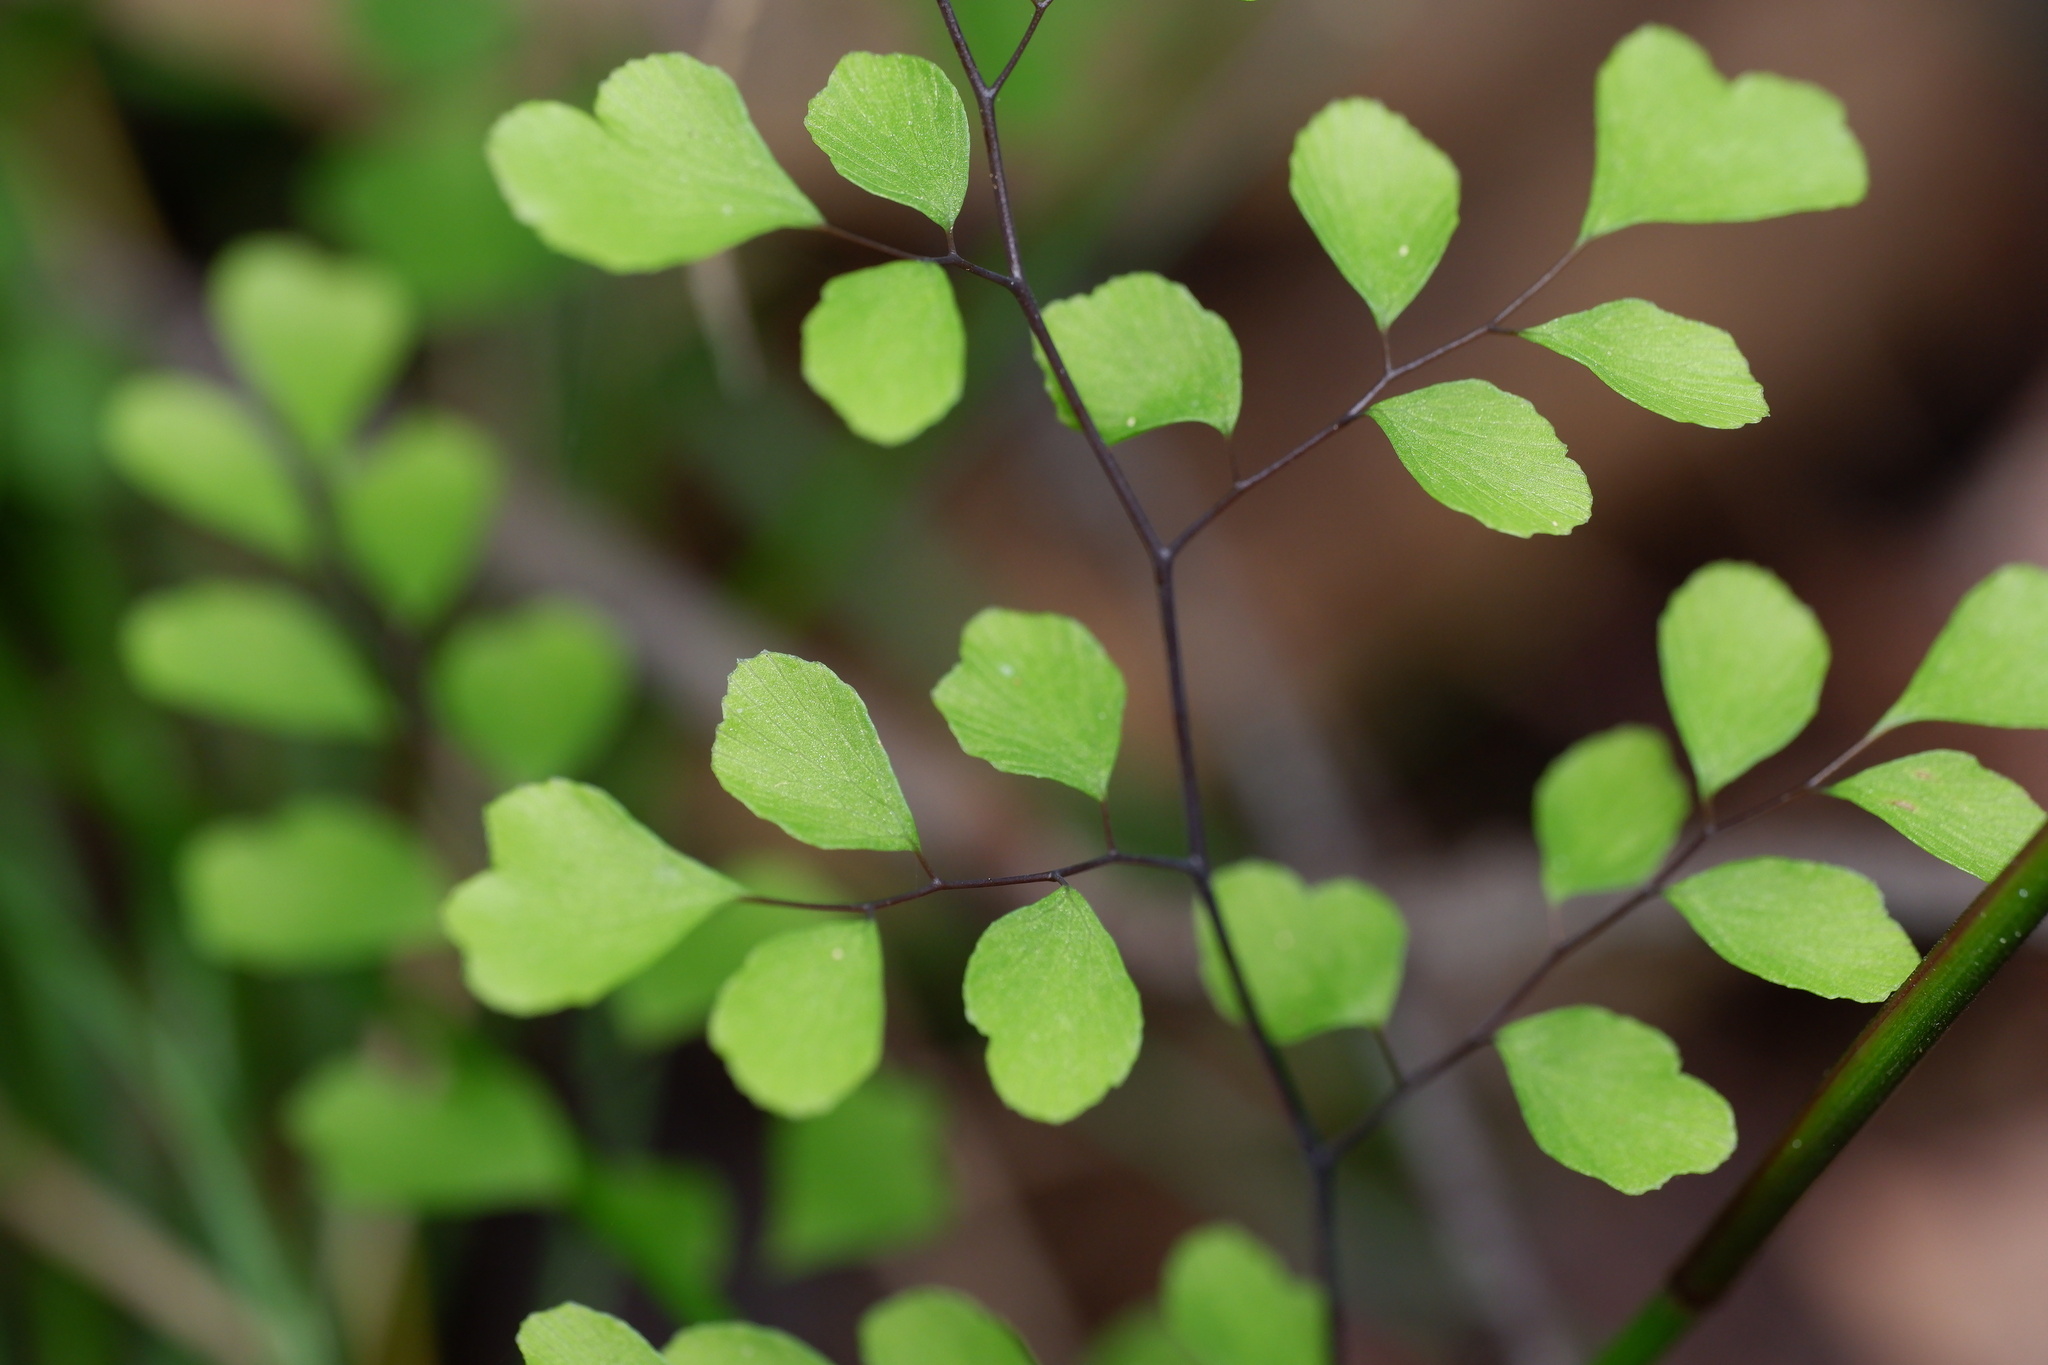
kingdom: Plantae
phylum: Tracheophyta
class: Polypodiopsida
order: Polypodiales
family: Pteridaceae
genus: Adiantum
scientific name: Adiantum aethiopicum
